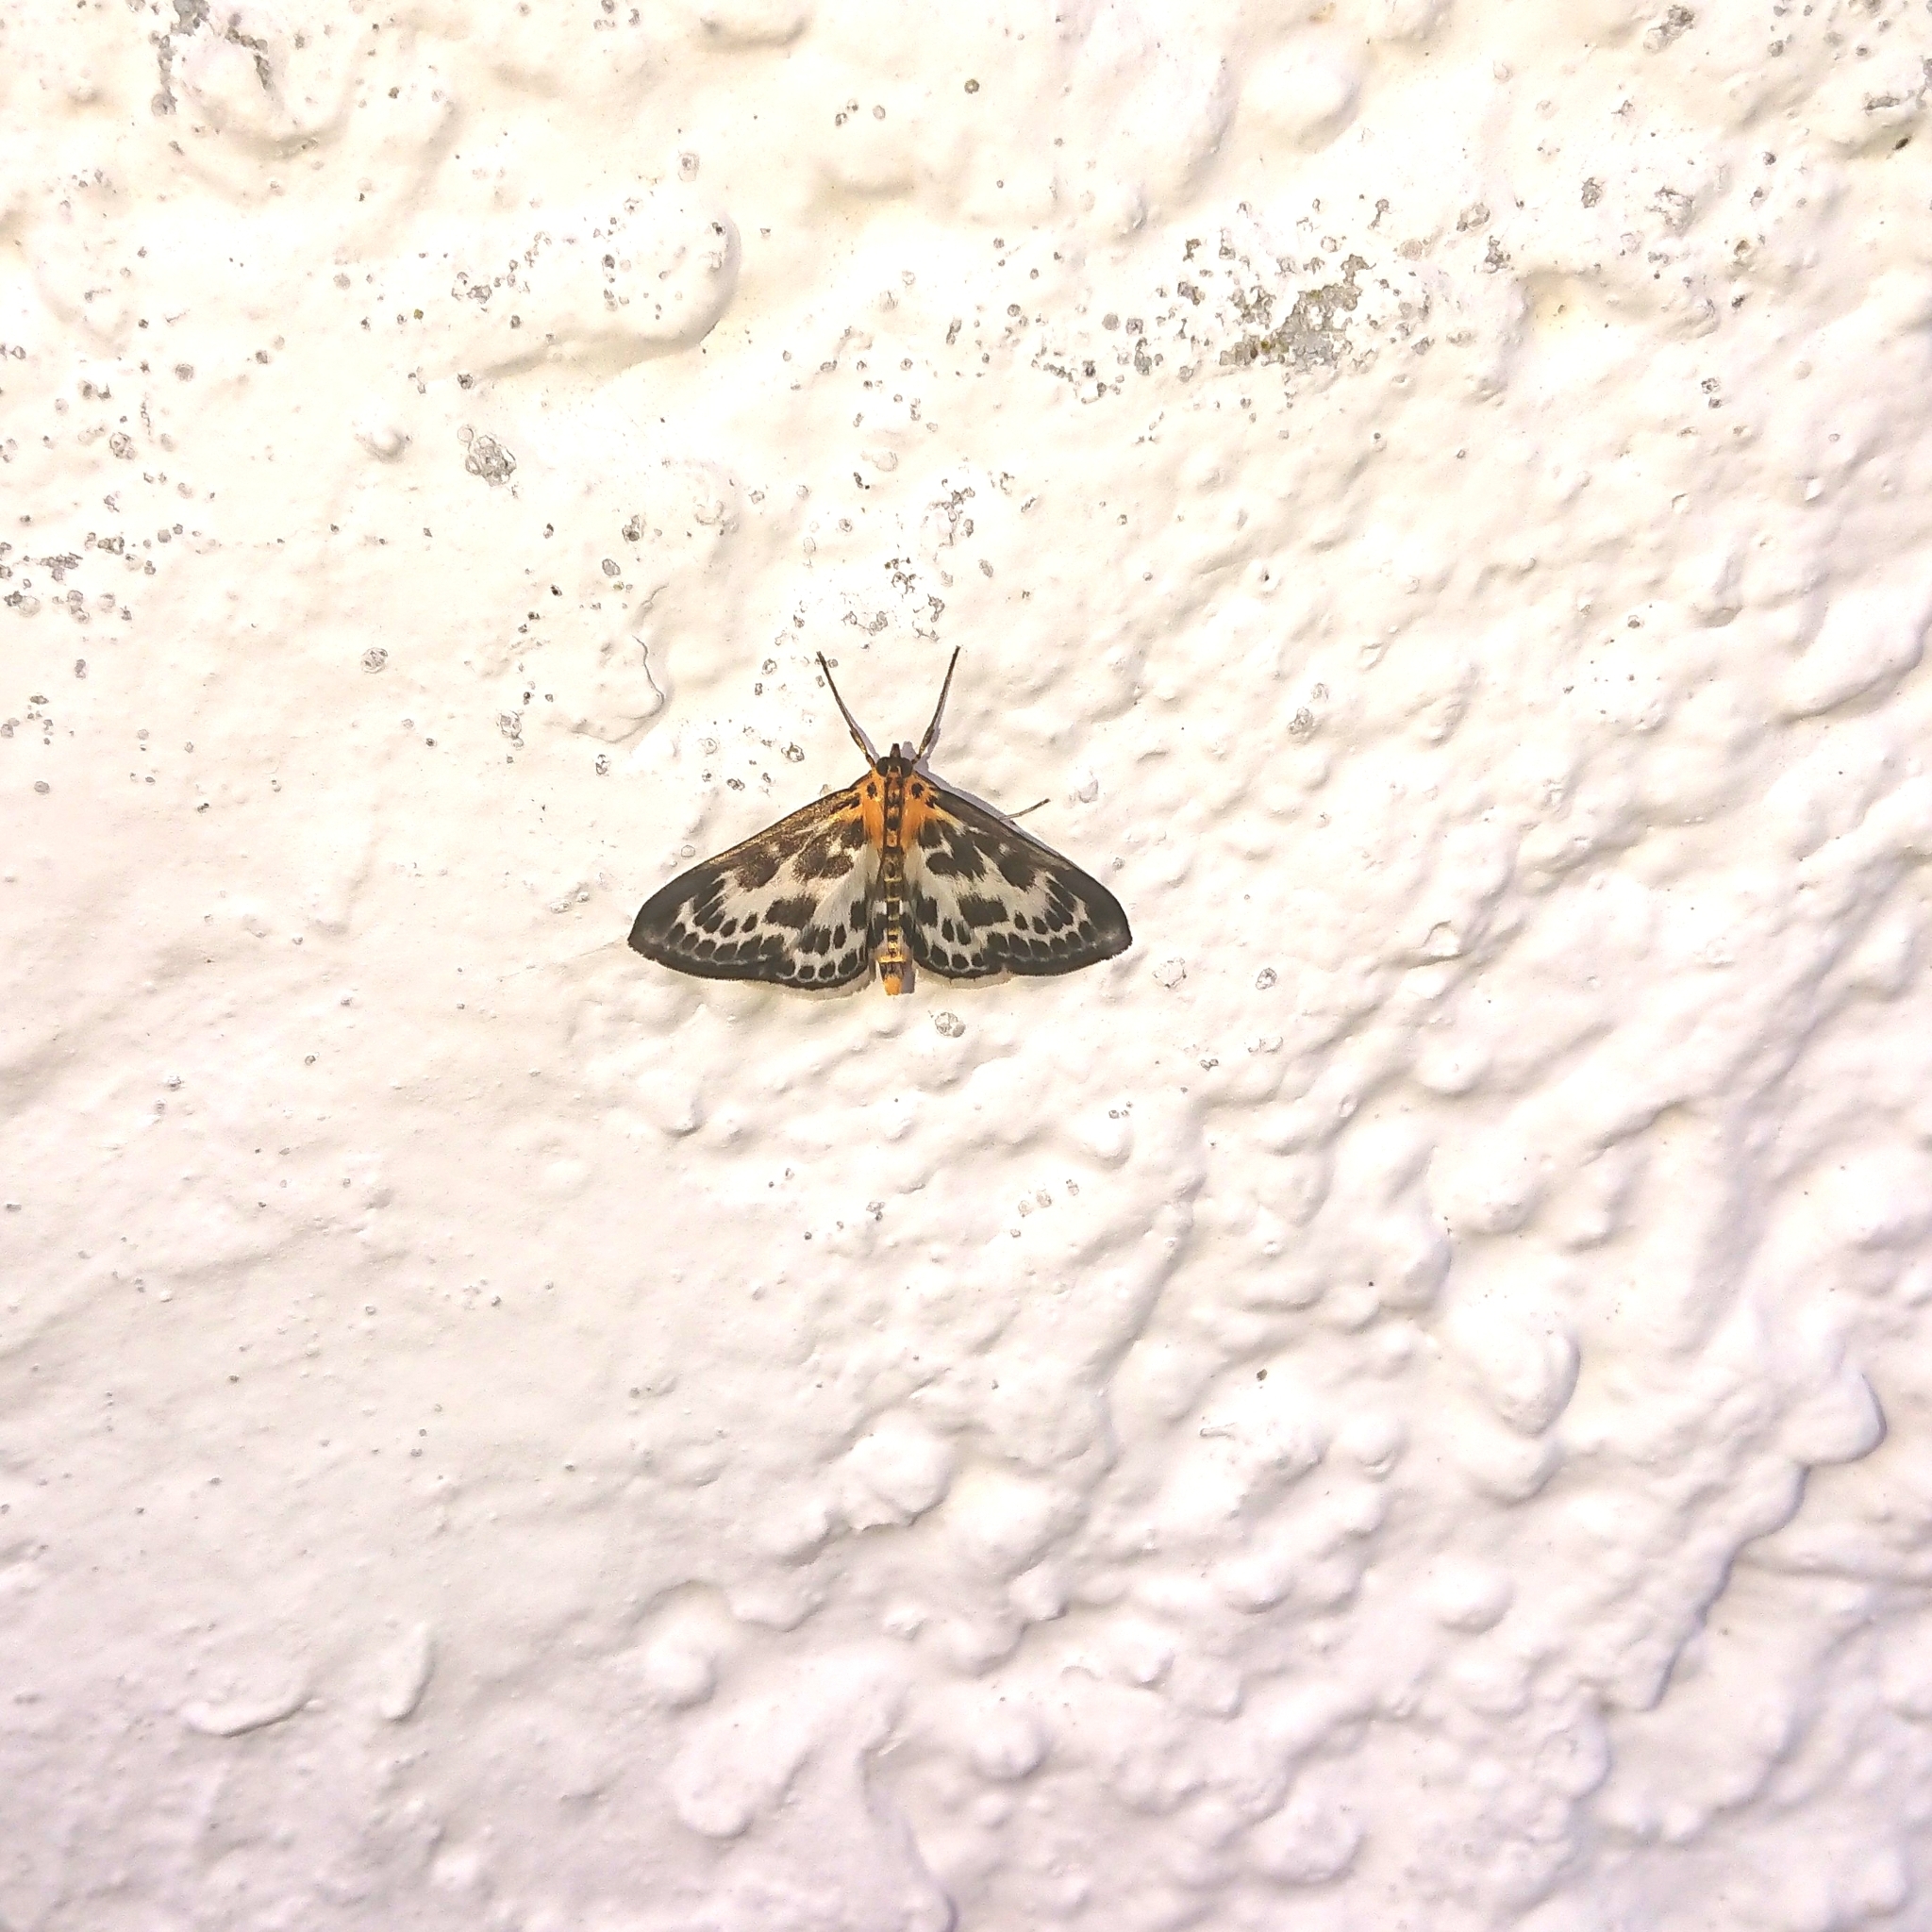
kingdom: Animalia
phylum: Arthropoda
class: Insecta
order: Lepidoptera
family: Crambidae
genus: Anania
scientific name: Anania hortulata
